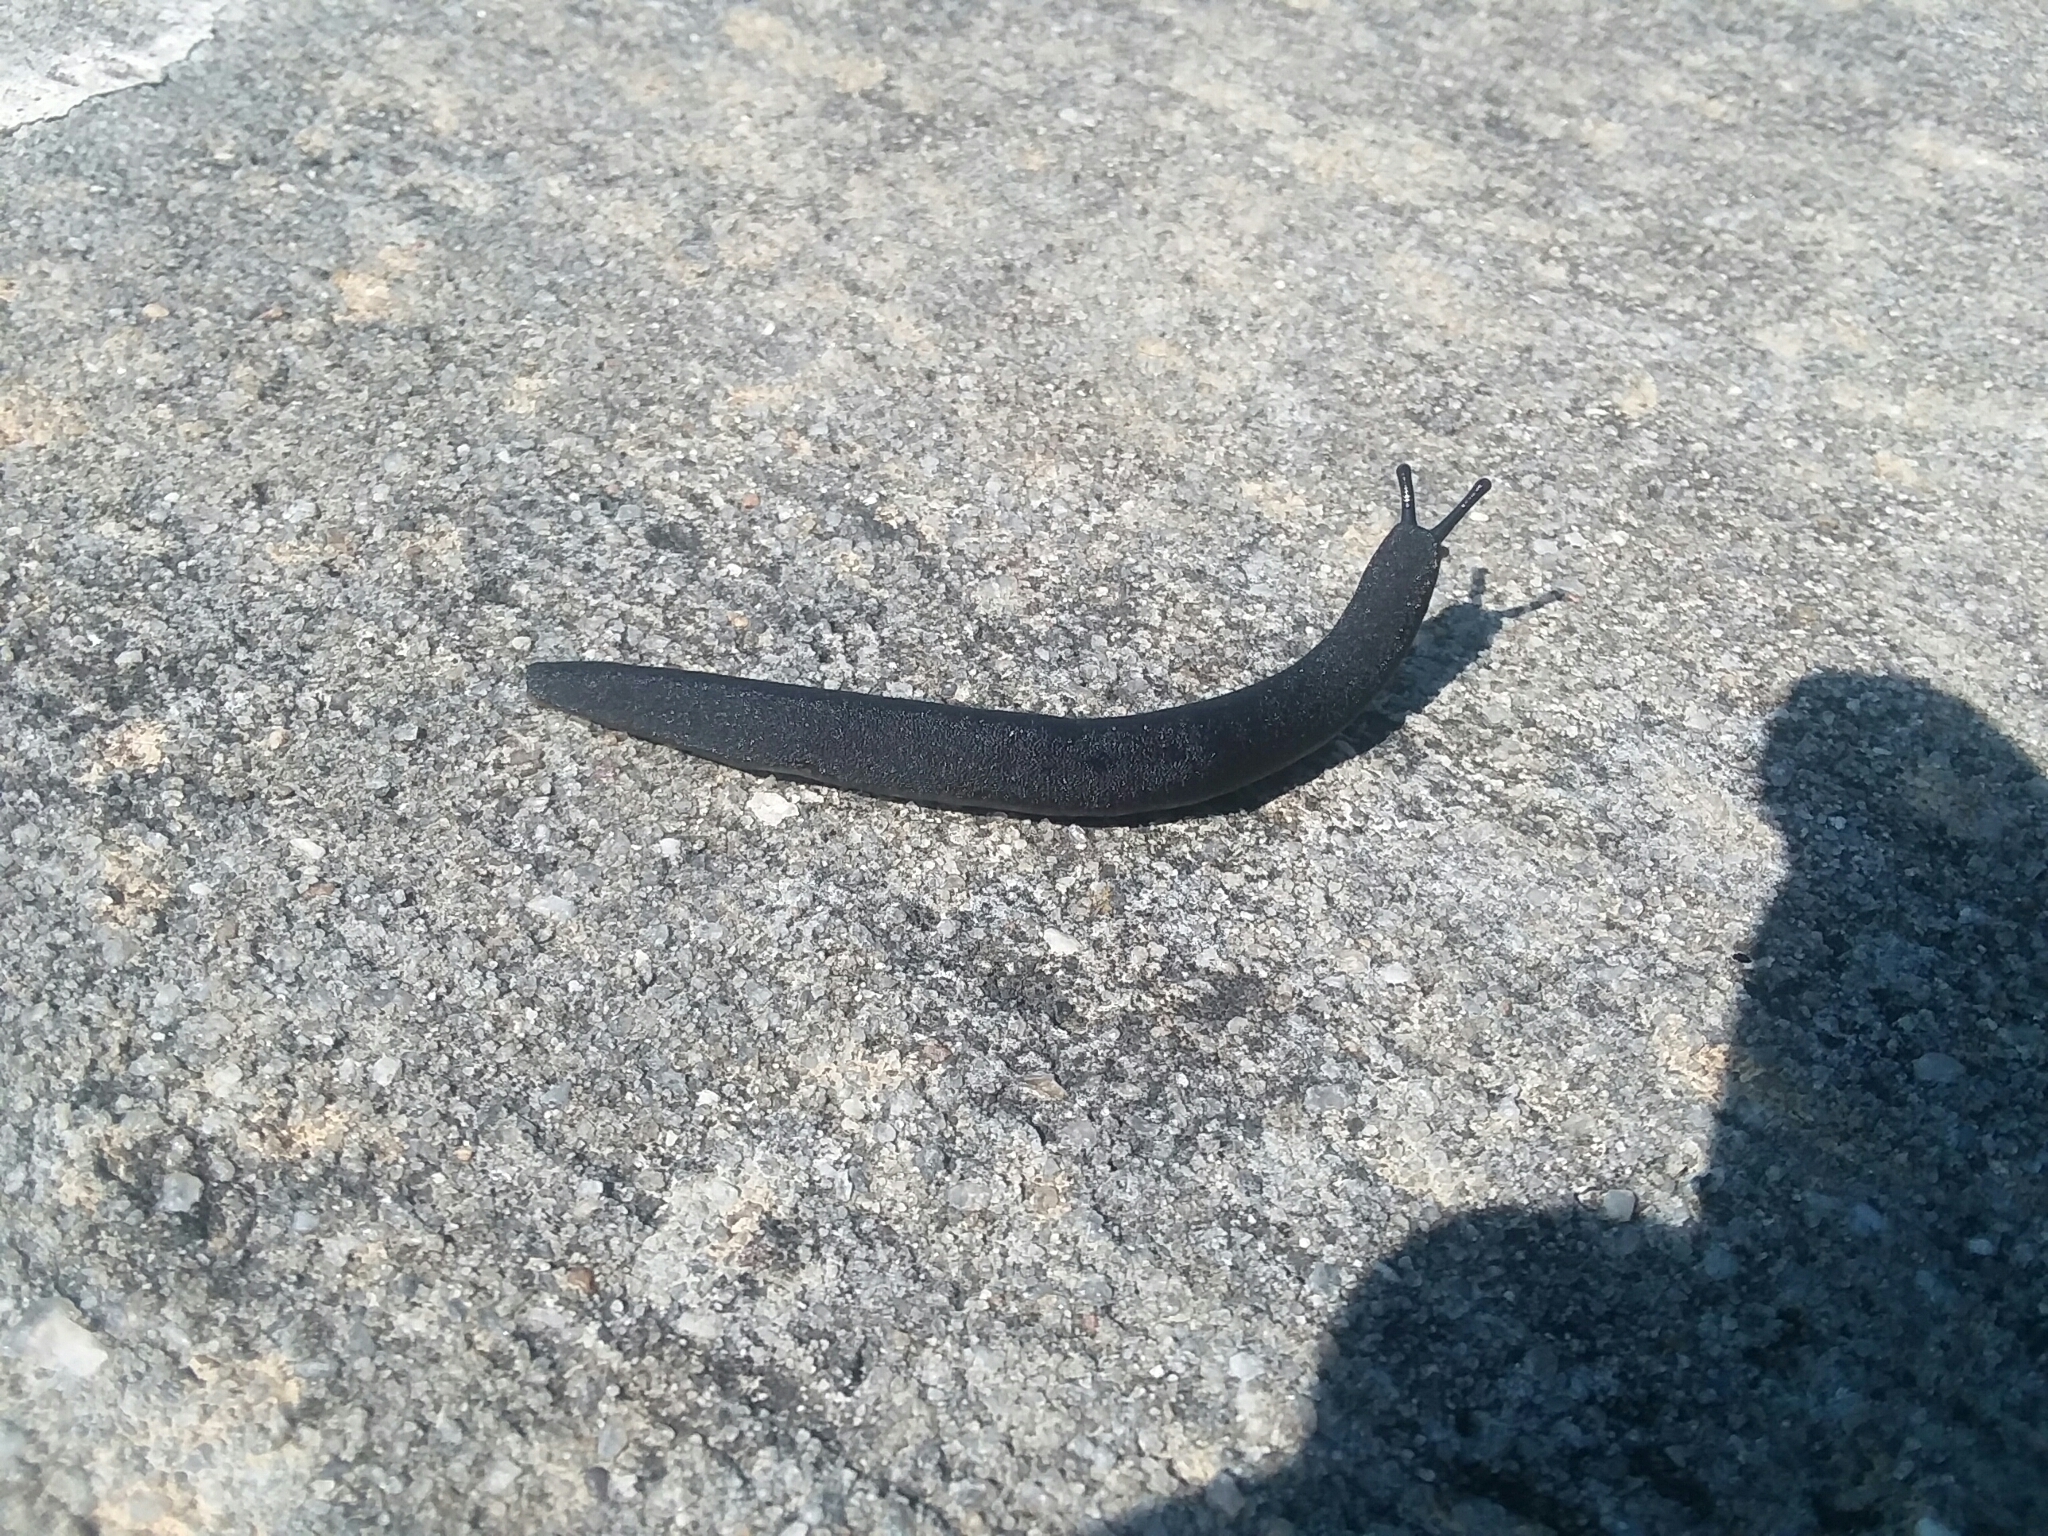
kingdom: Animalia
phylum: Mollusca
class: Gastropoda
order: Systellommatophora
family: Veronicellidae
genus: Belocaulus
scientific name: Belocaulus angustipes
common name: Black velvet leatherleaf slug
